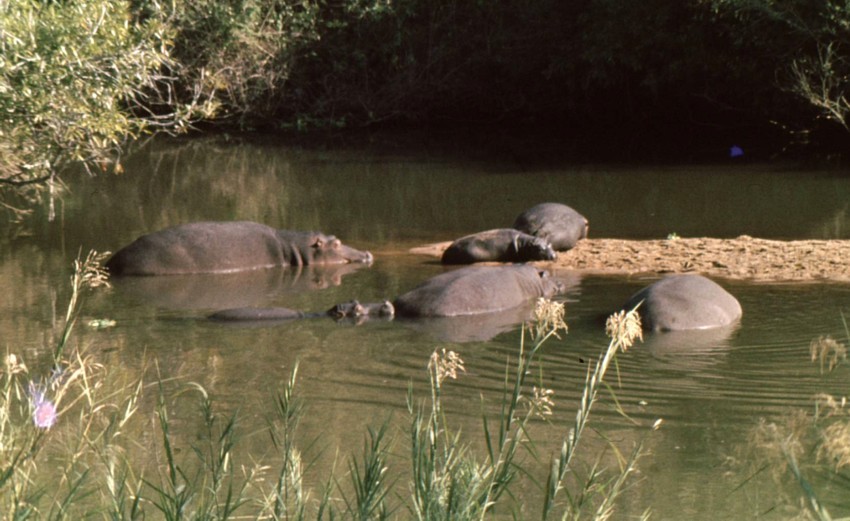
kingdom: Animalia
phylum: Chordata
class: Mammalia
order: Artiodactyla
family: Hippopotamidae
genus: Hippopotamus
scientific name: Hippopotamus amphibius
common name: Common hippopotamus
